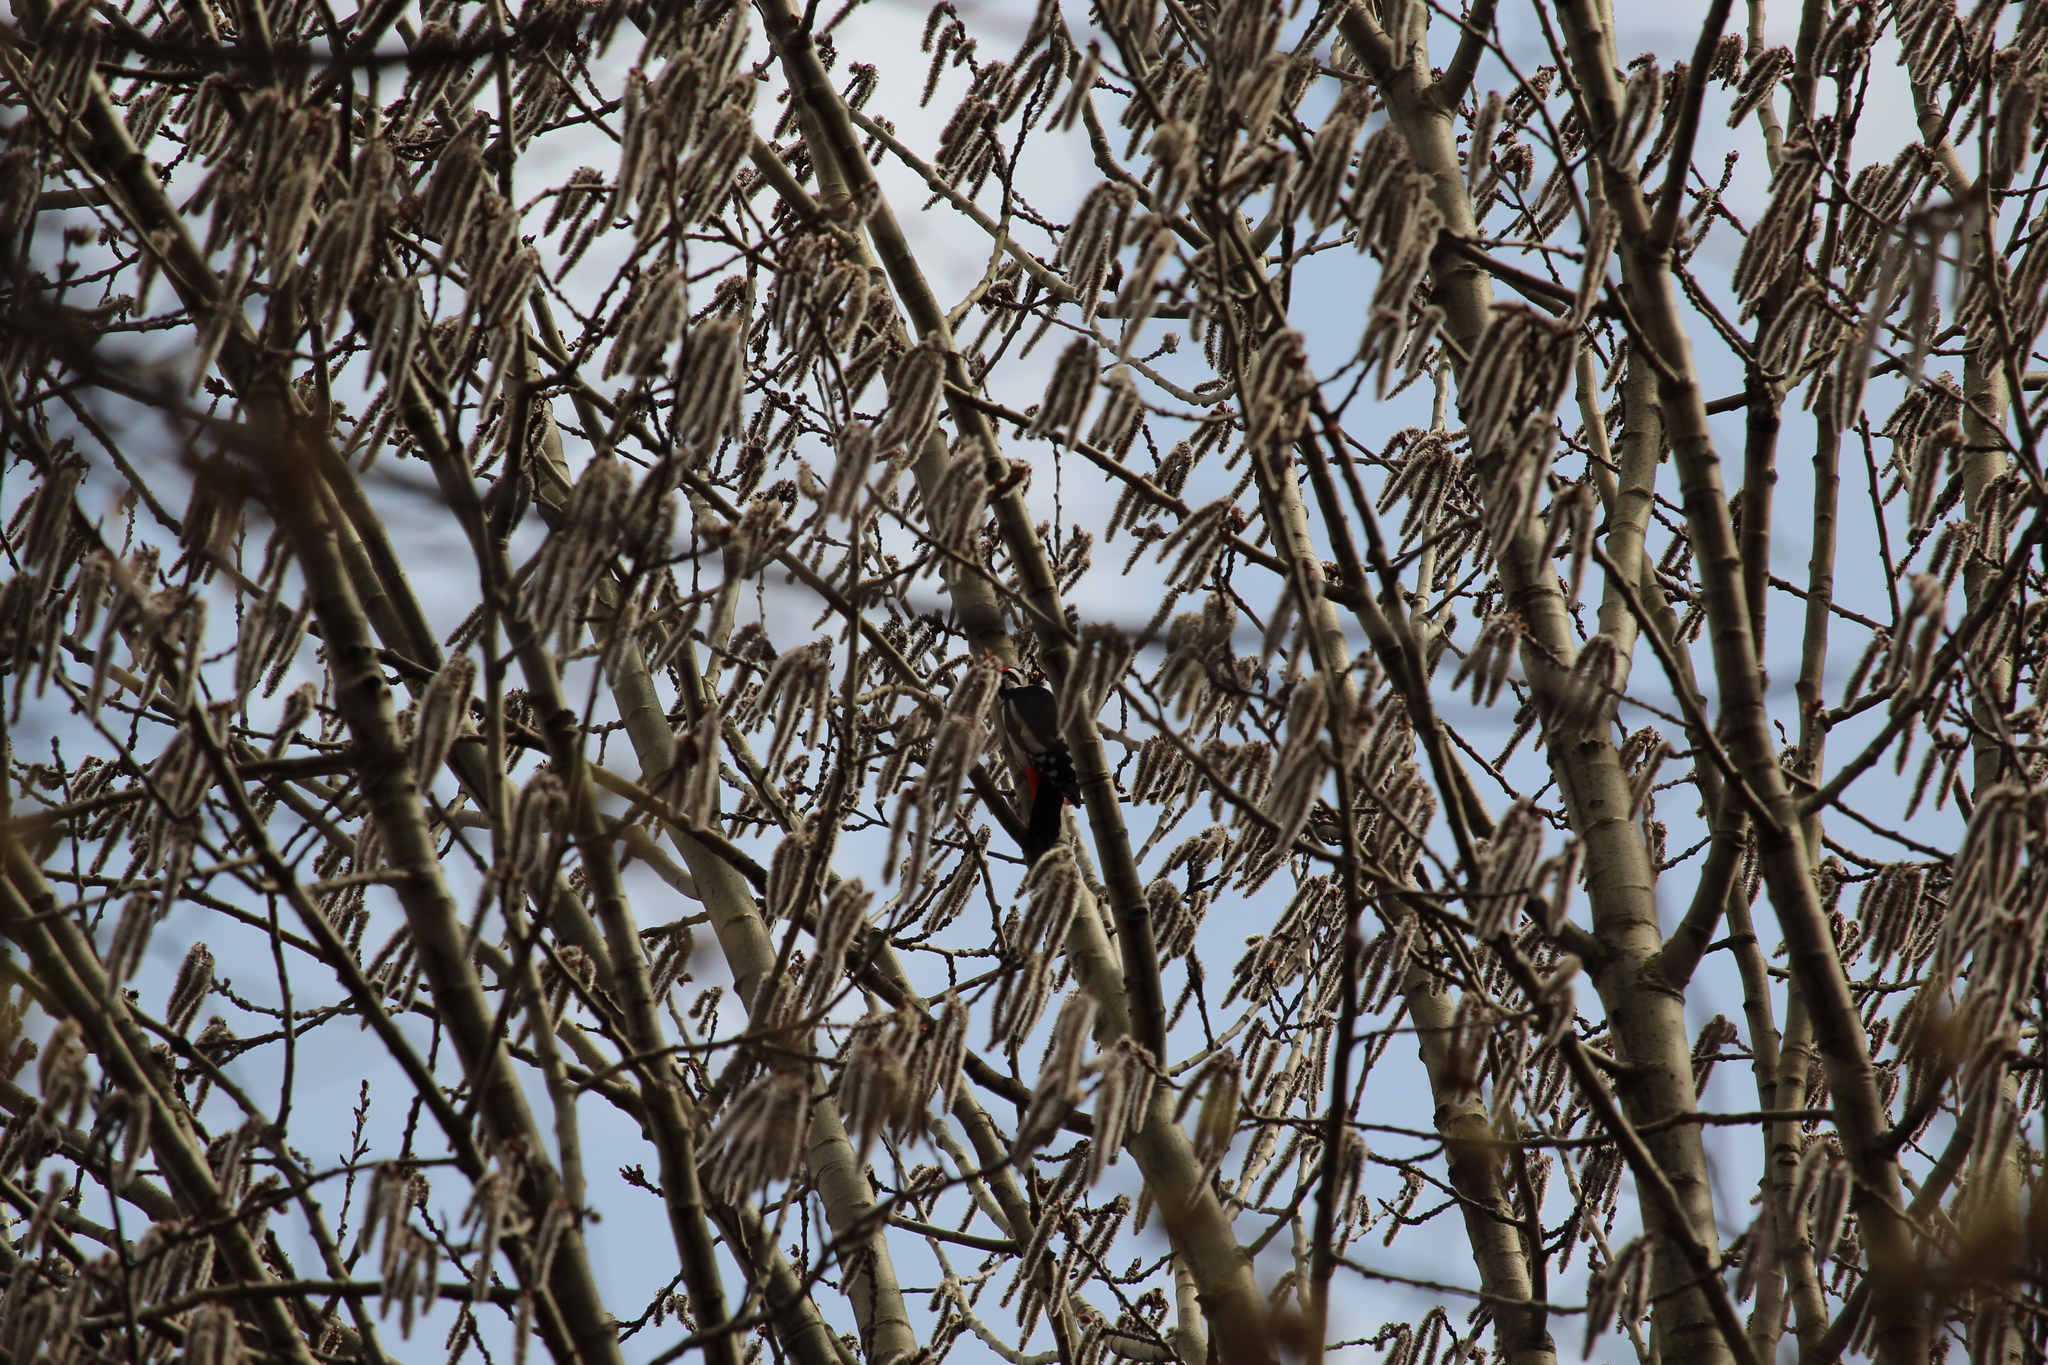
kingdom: Animalia
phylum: Chordata
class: Aves
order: Piciformes
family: Picidae
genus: Dendrocopos
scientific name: Dendrocopos major
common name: Great spotted woodpecker
